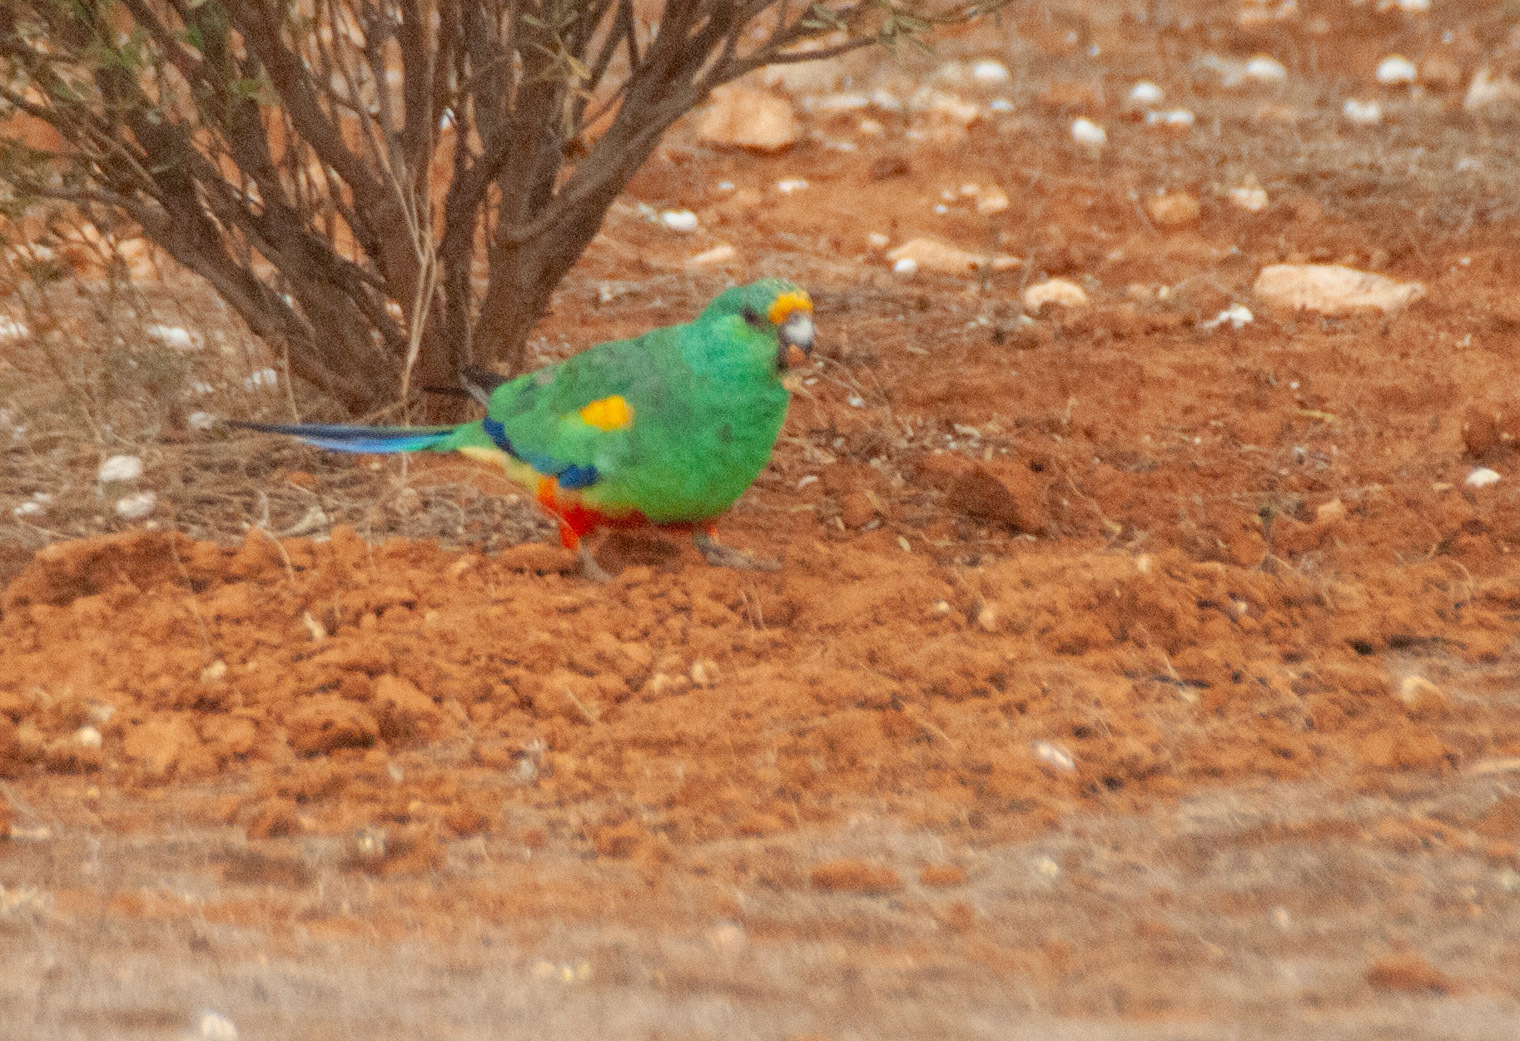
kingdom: Animalia
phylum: Chordata
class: Aves
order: Psittaciformes
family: Psittaculidae
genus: Psephotellus
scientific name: Psephotellus varius
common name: Mulga parrot
